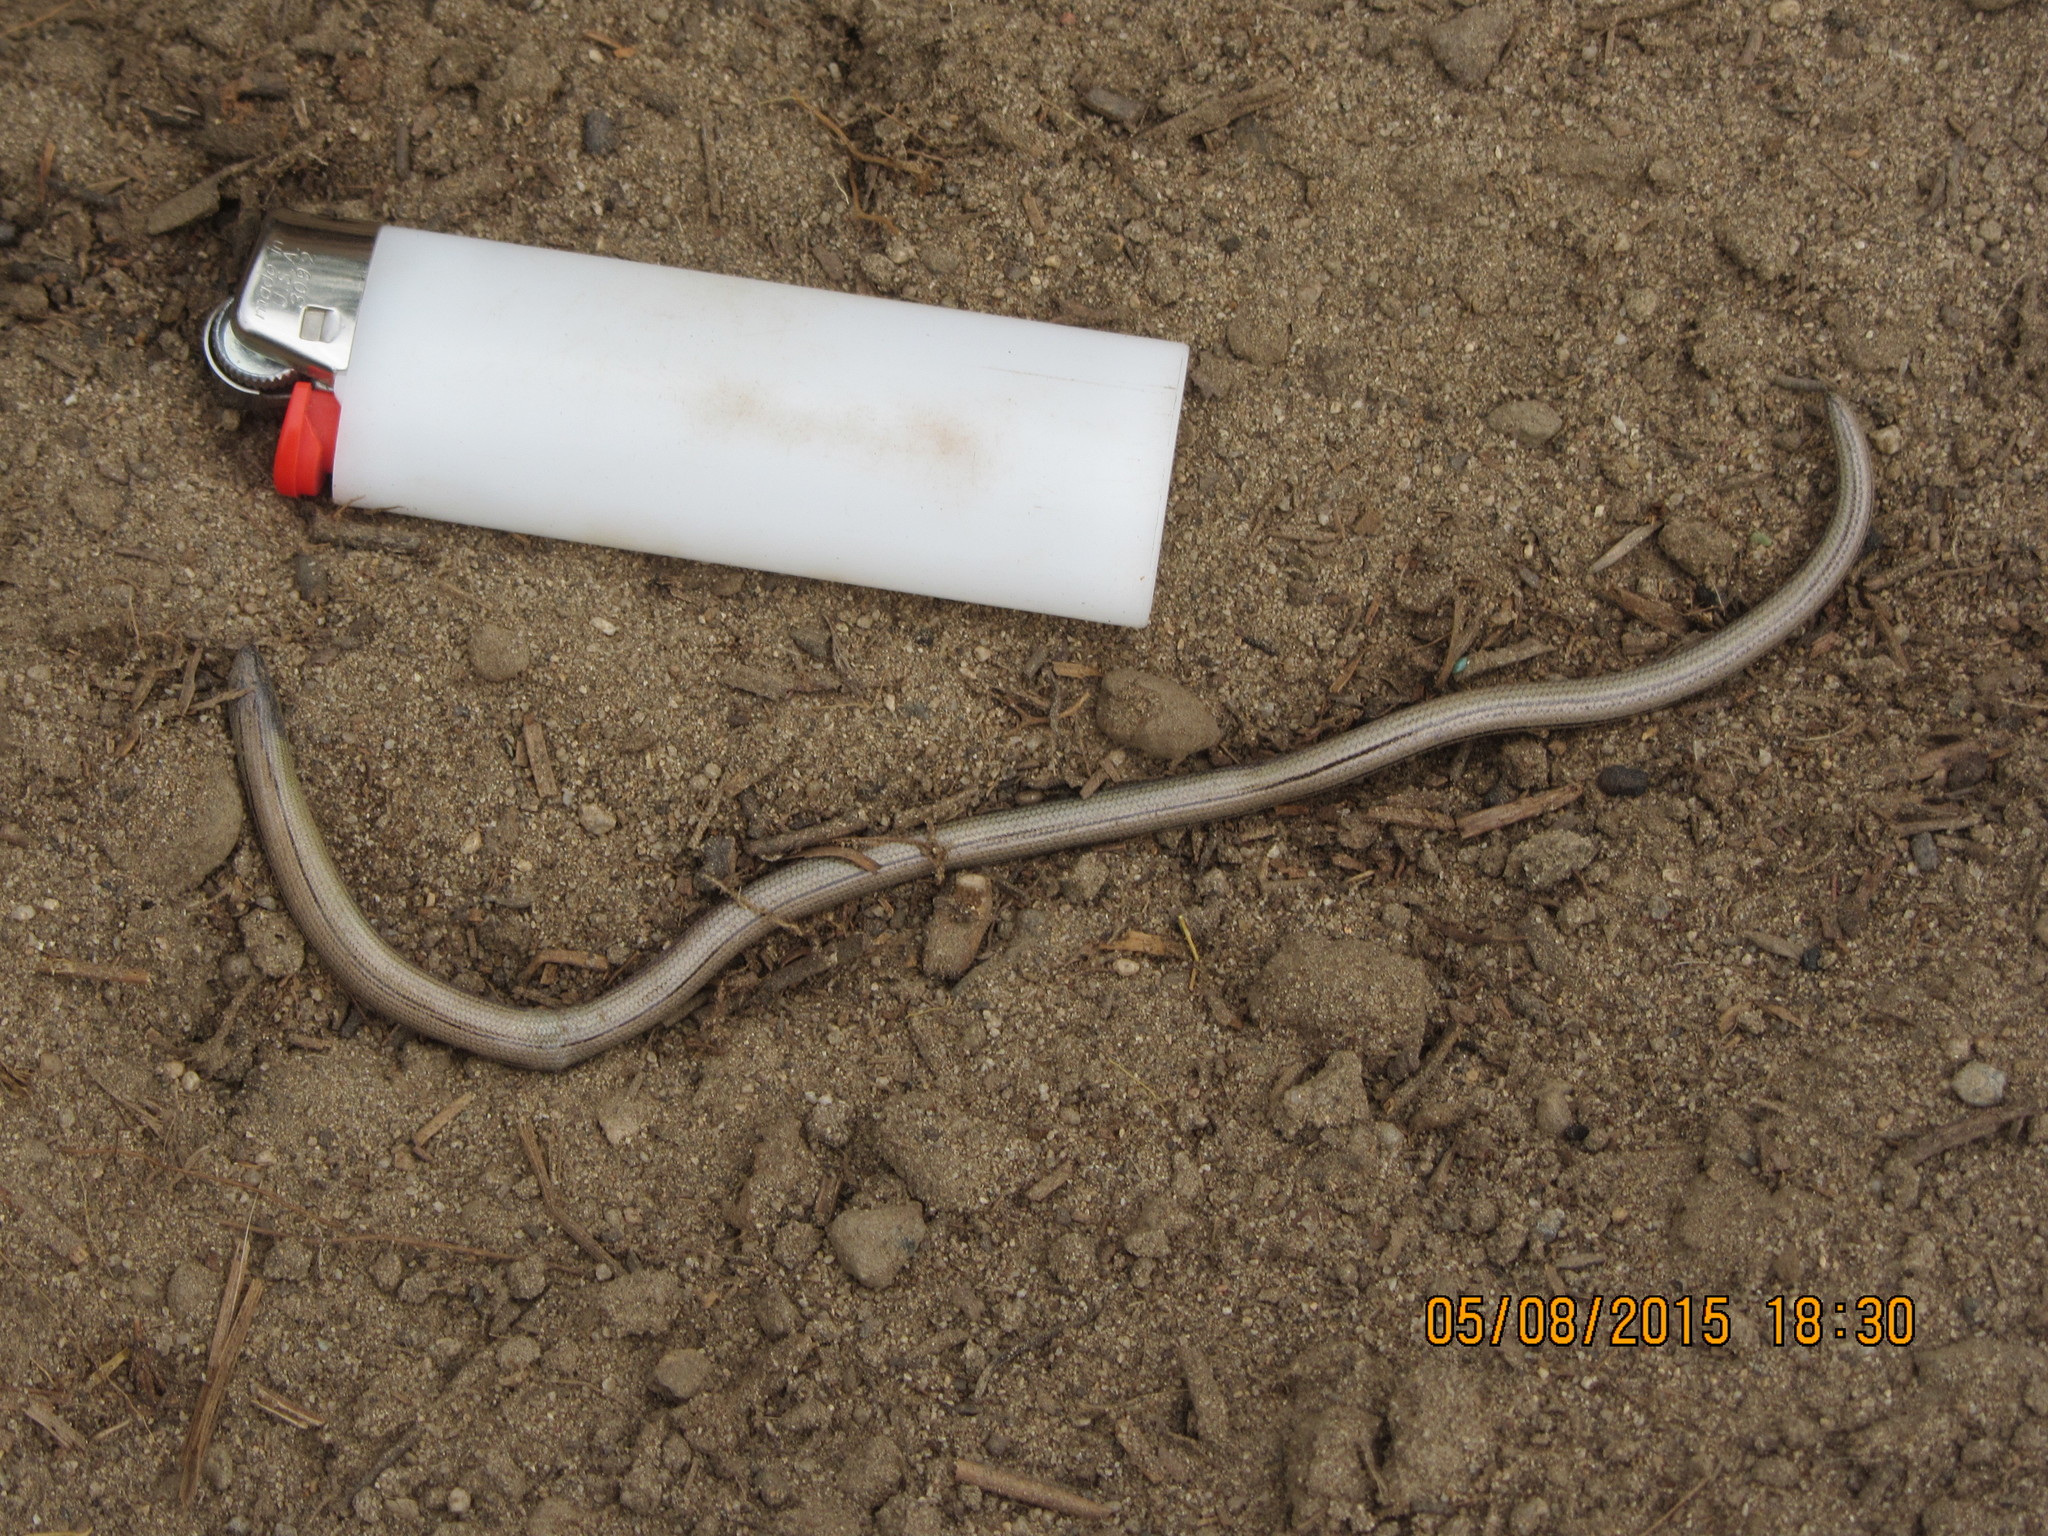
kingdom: Animalia
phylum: Chordata
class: Squamata
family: Anguidae
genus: Anniella
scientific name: Anniella grinnelli
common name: Bakersfield legless lizard
